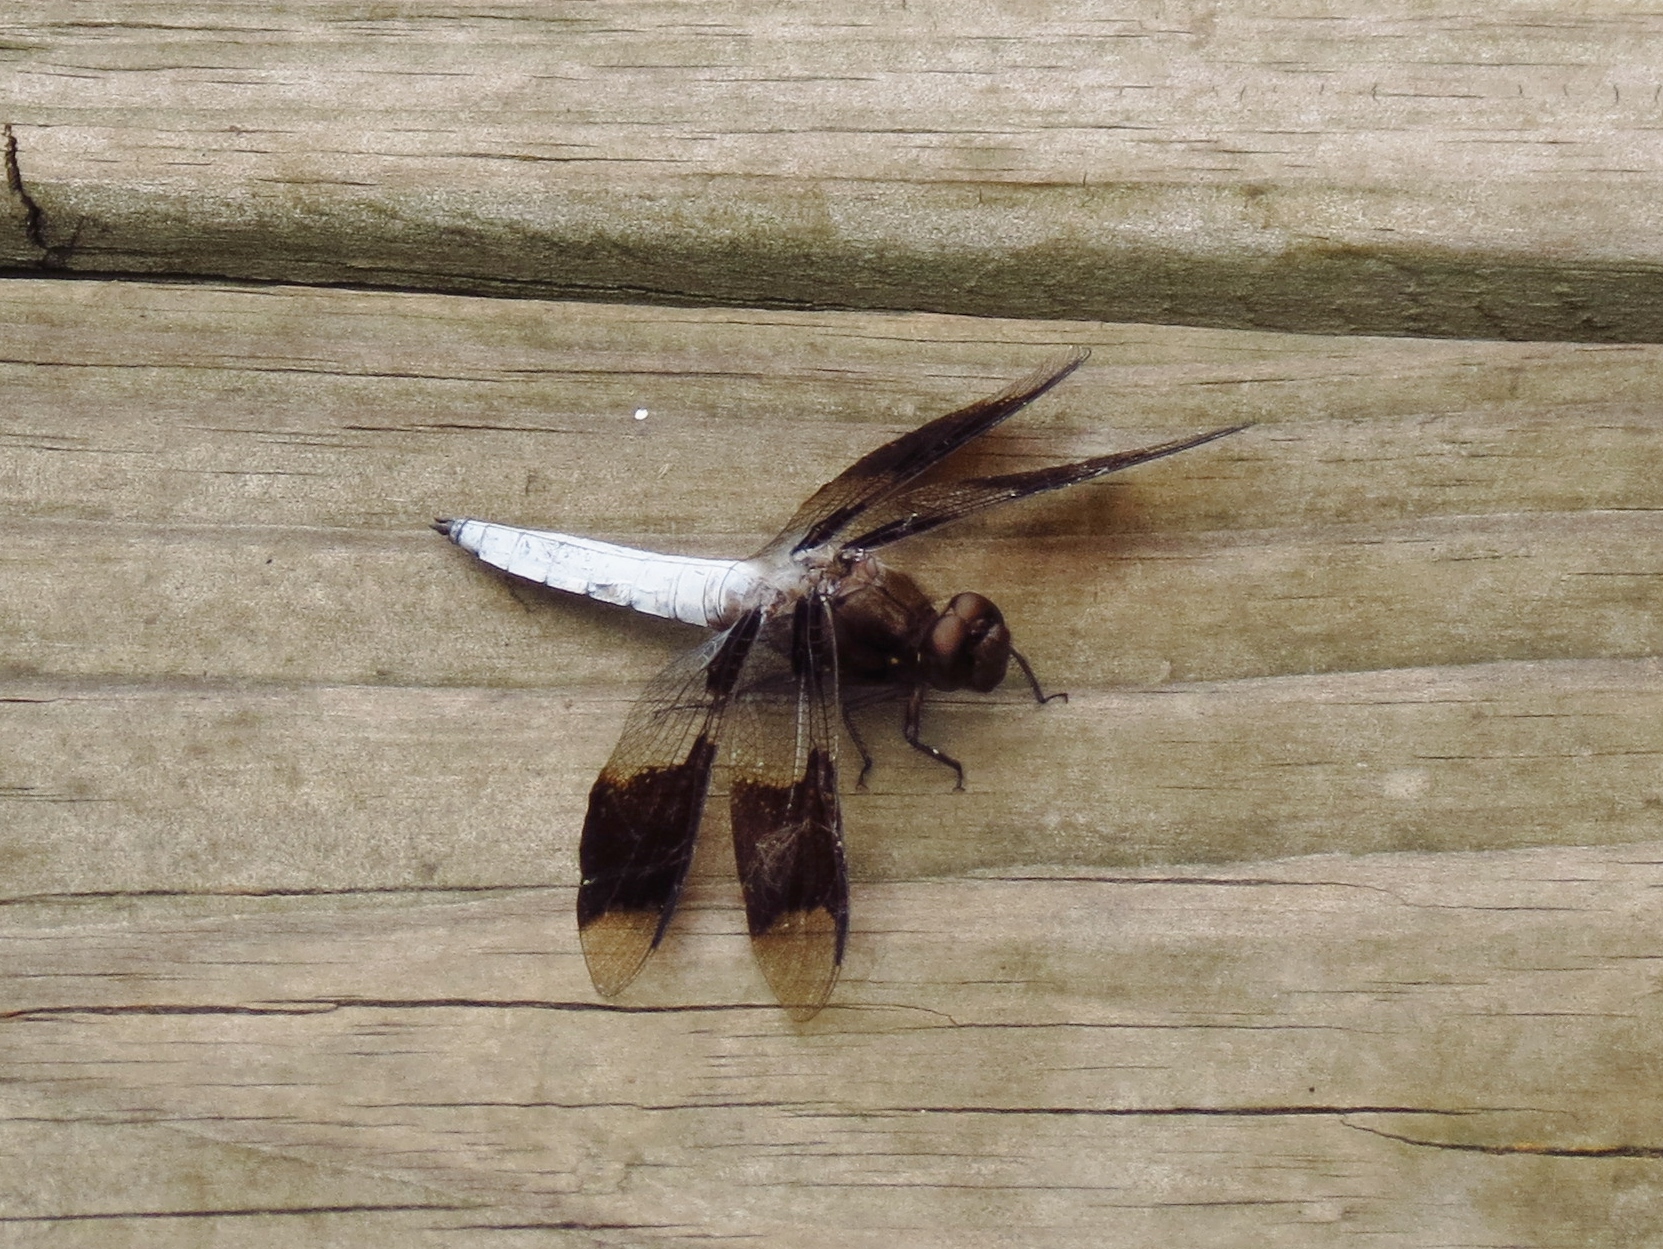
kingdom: Animalia
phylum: Arthropoda
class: Insecta
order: Odonata
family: Libellulidae
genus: Plathemis
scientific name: Plathemis lydia
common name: Common whitetail
